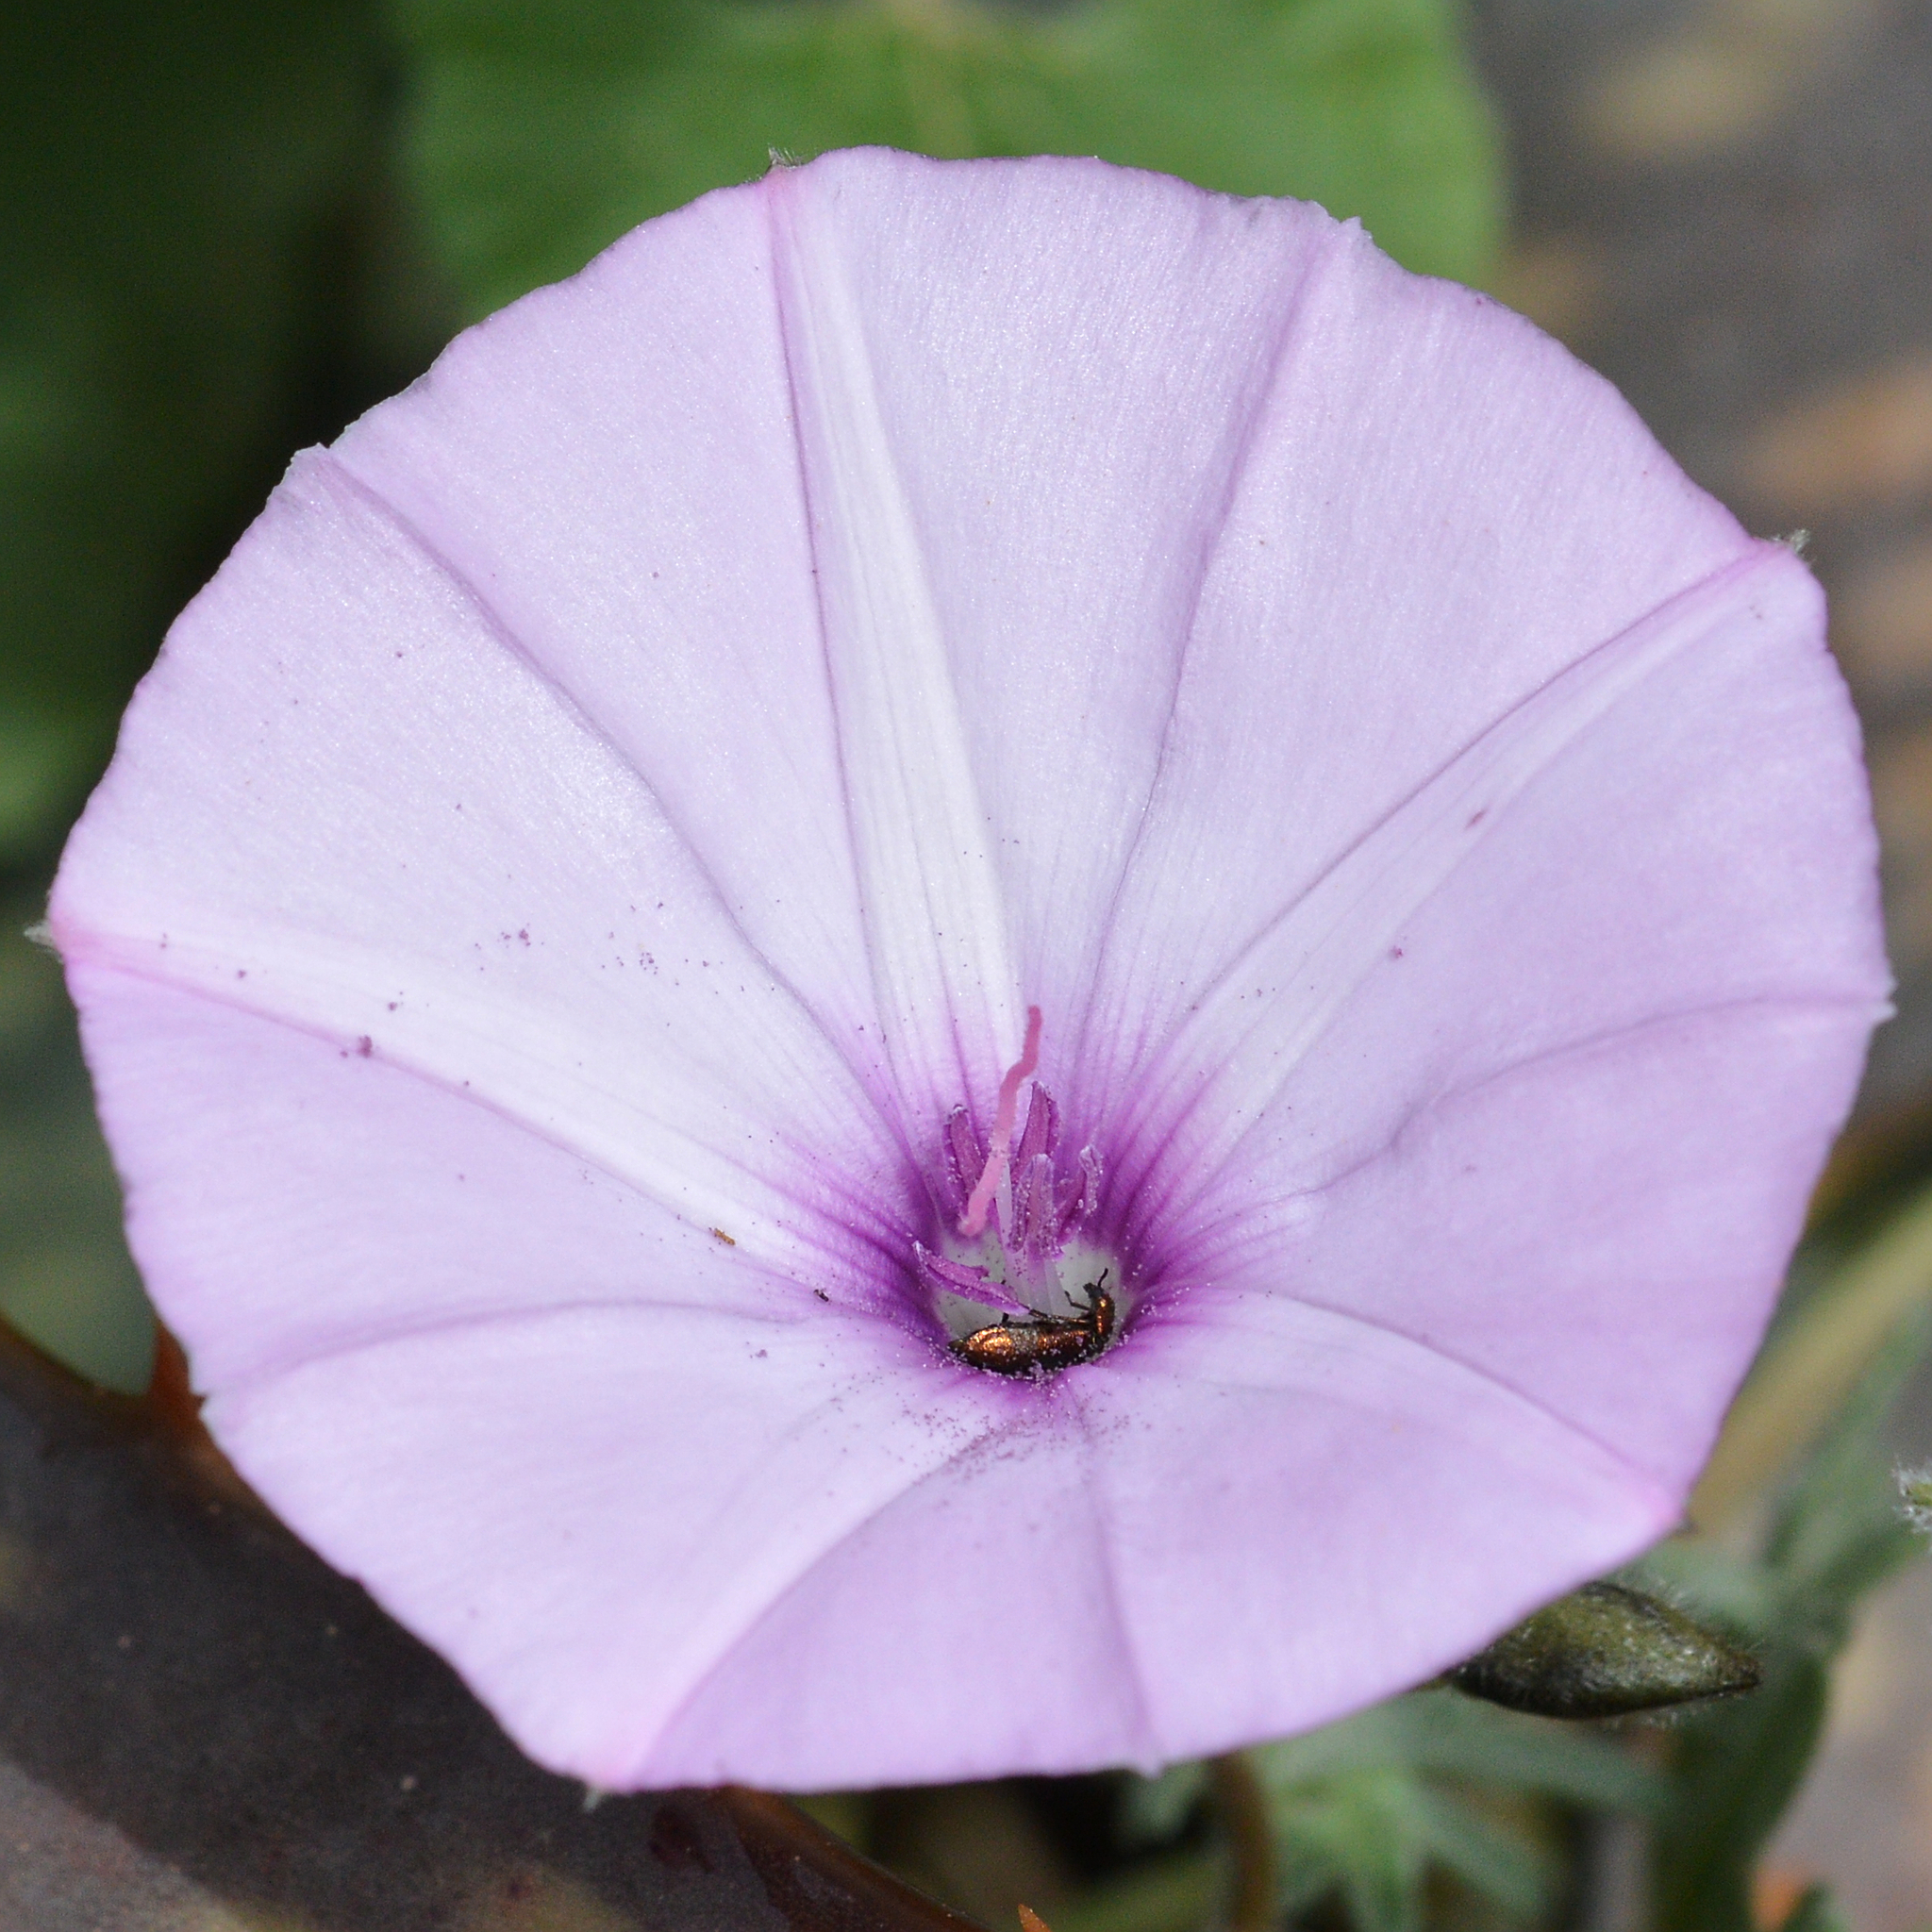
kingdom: Plantae
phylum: Tracheophyta
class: Magnoliopsida
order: Solanales
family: Convolvulaceae
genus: Convolvulus
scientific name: Convolvulus althaeoides
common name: Mallow bindweed
